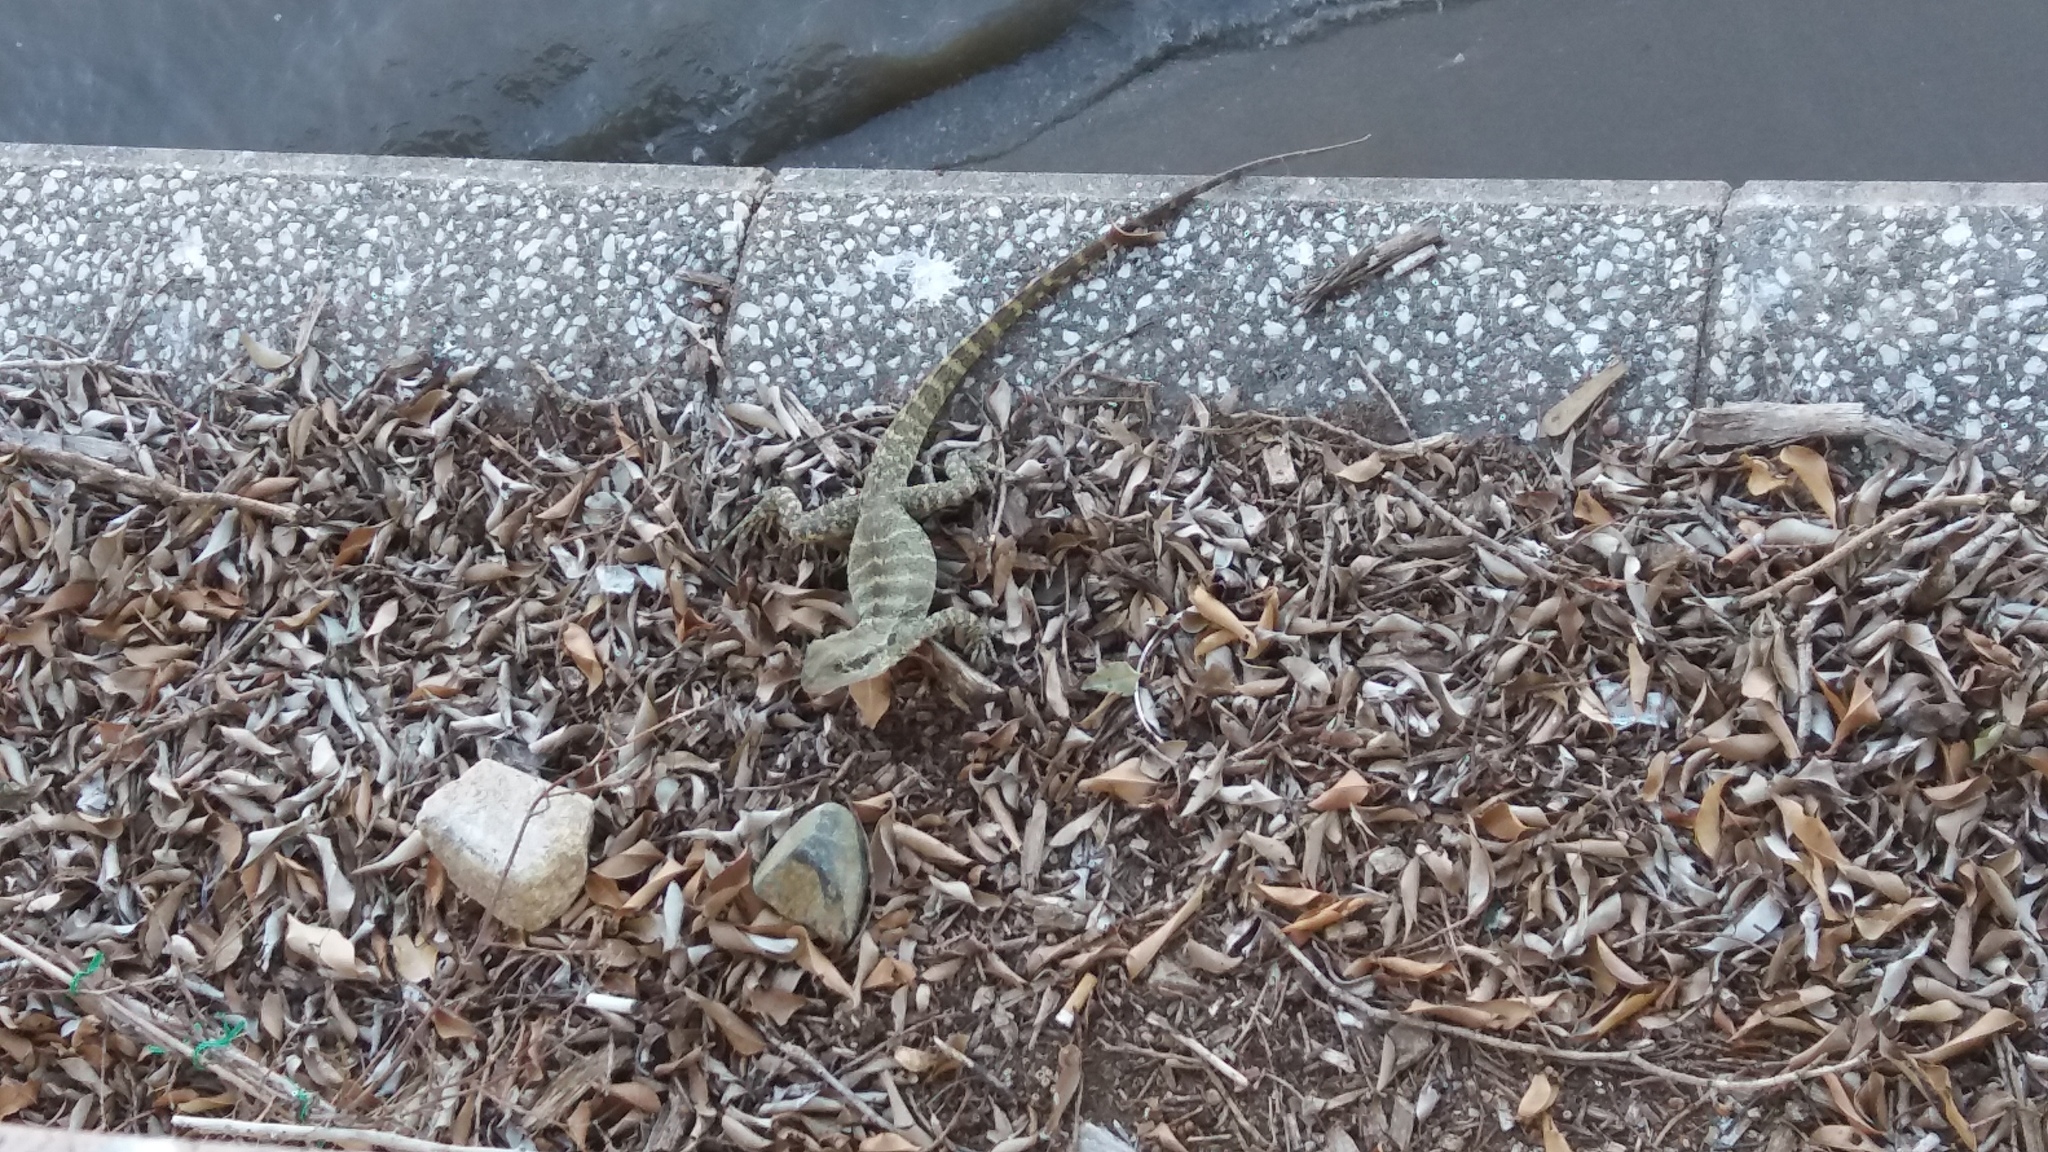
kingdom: Animalia
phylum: Chordata
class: Squamata
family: Agamidae
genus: Intellagama
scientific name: Intellagama lesueurii
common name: Eastern water dragon
